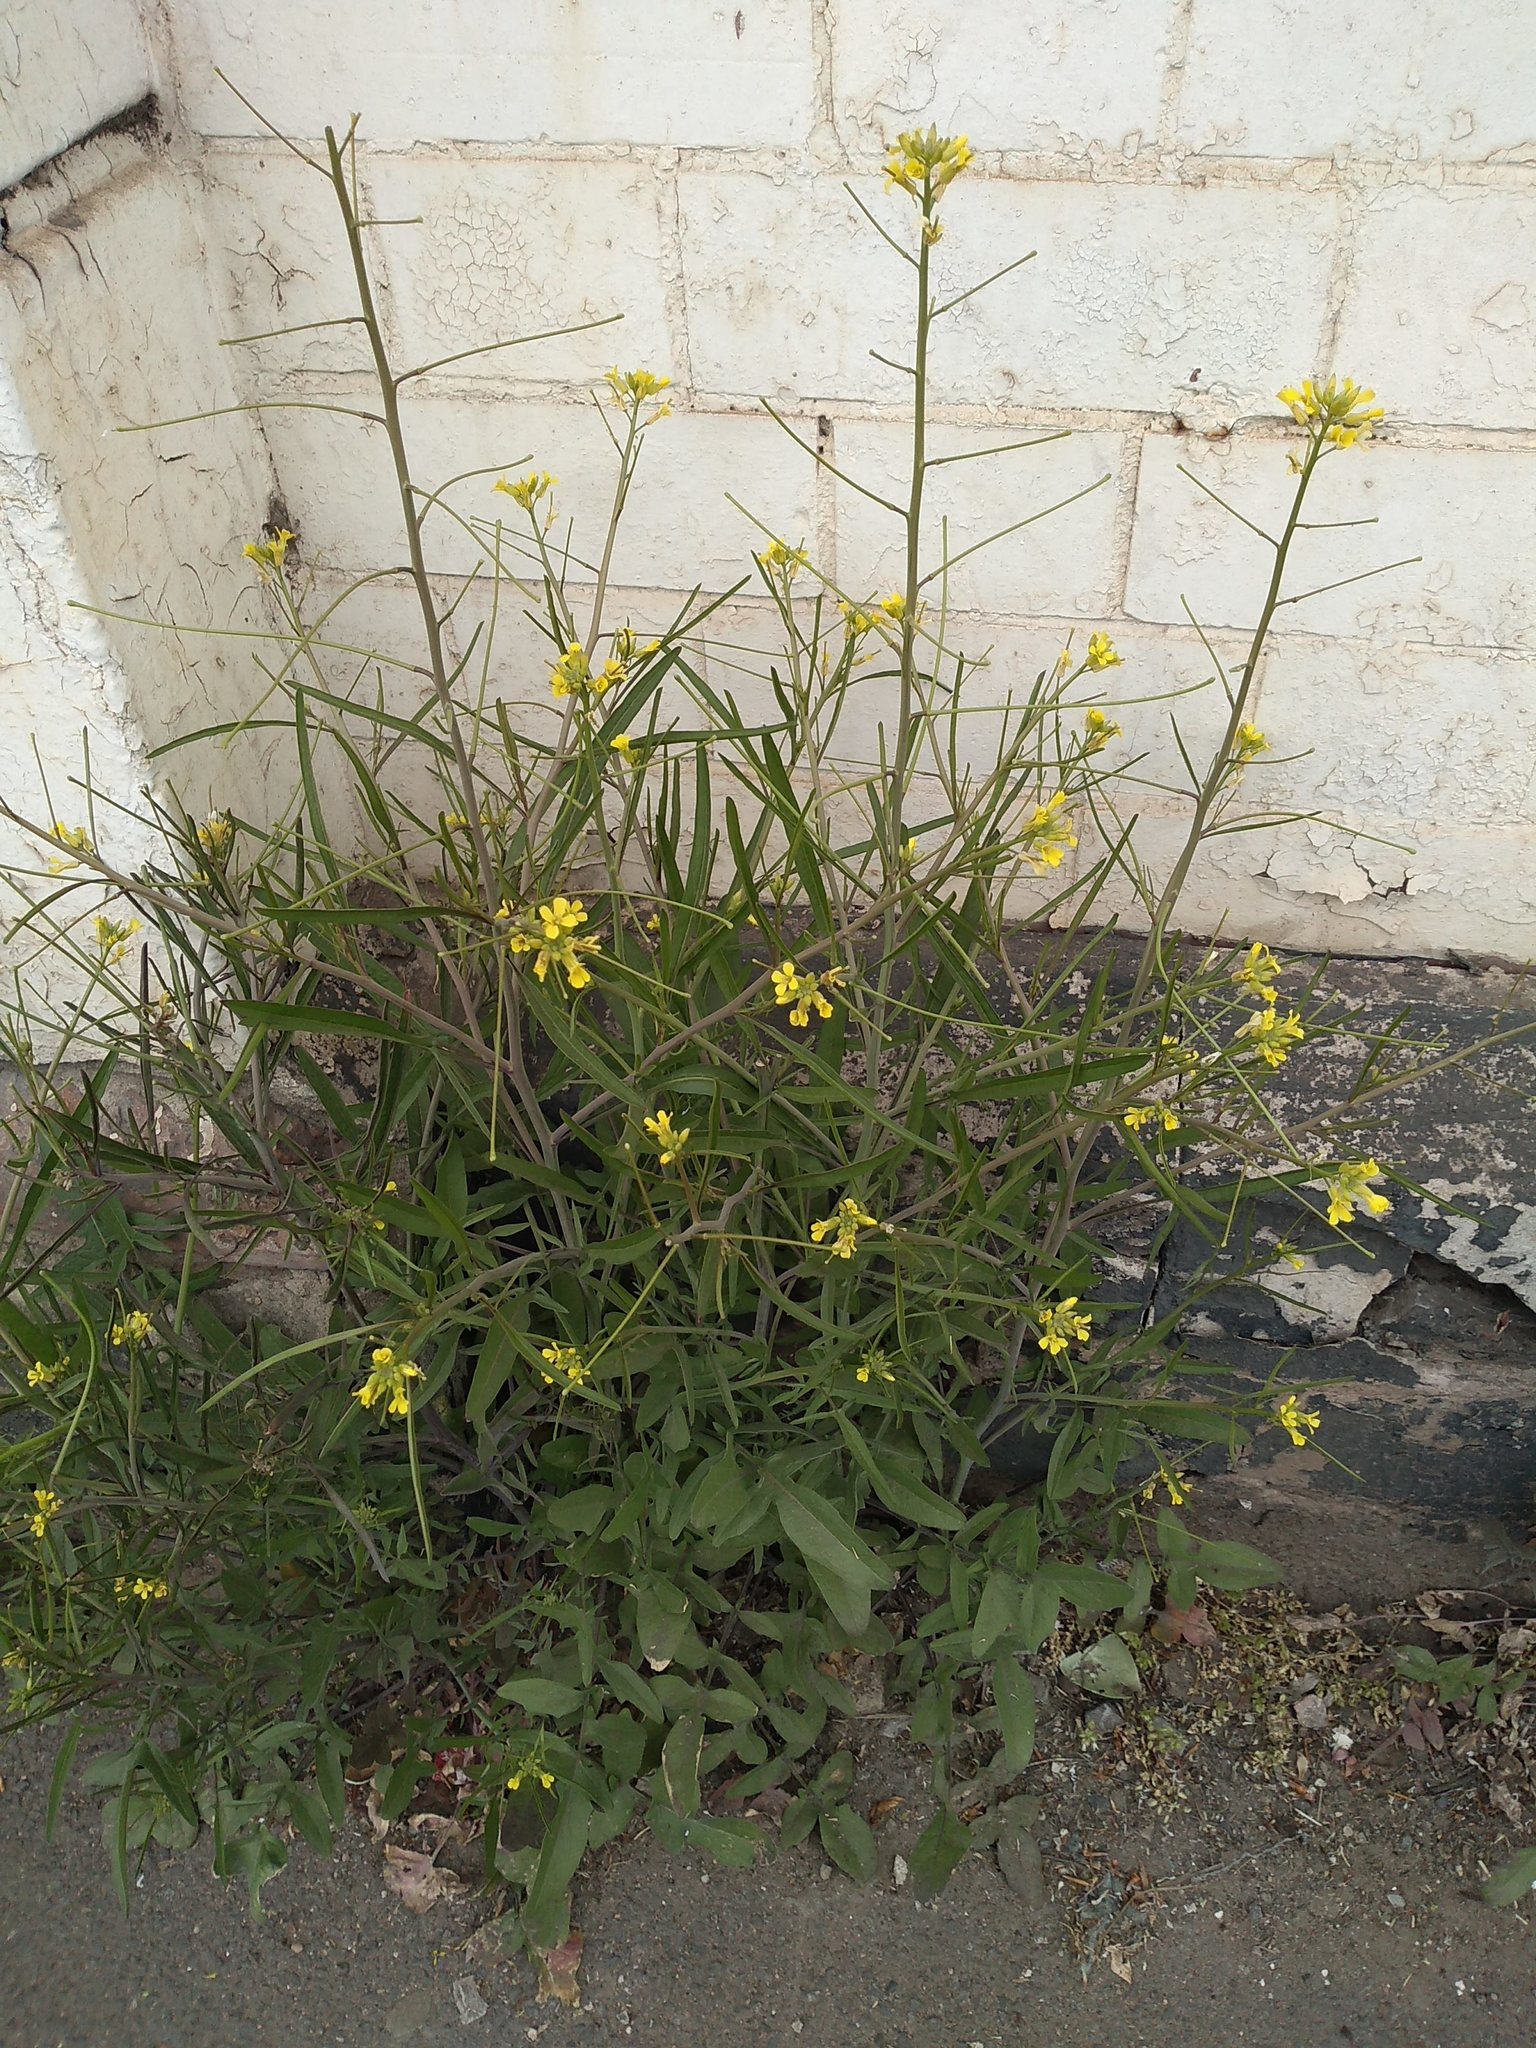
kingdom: Plantae
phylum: Tracheophyta
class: Magnoliopsida
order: Brassicales
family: Brassicaceae
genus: Sisymbrium
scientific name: Sisymbrium orientale
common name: Eastern rocket
